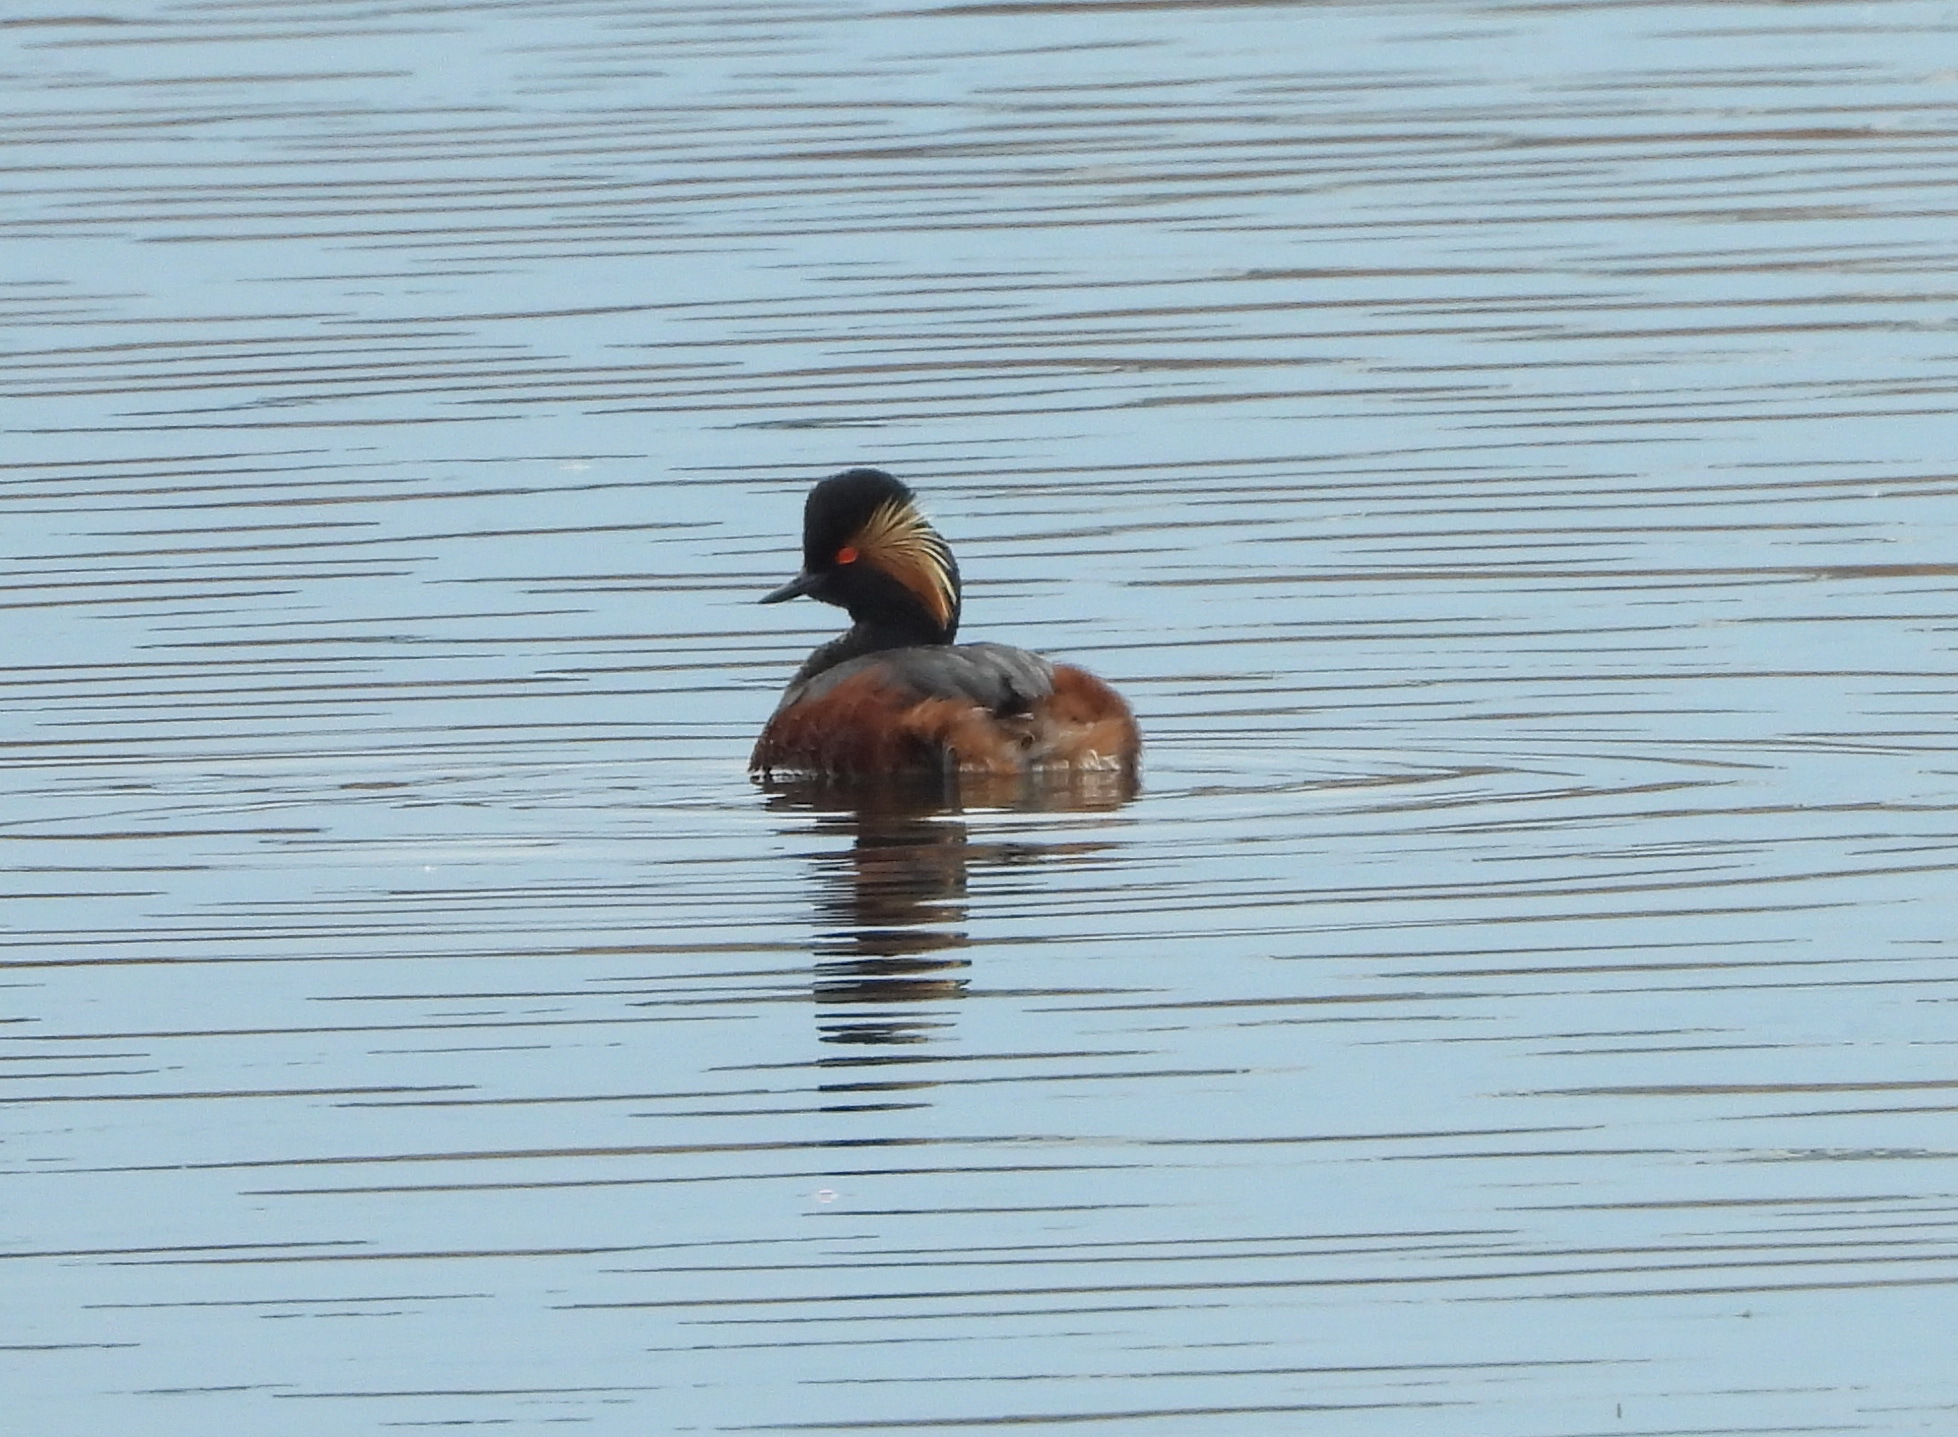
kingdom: Animalia
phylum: Chordata
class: Aves
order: Podicipediformes
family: Podicipedidae
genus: Podiceps
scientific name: Podiceps nigricollis
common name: Black-necked grebe
